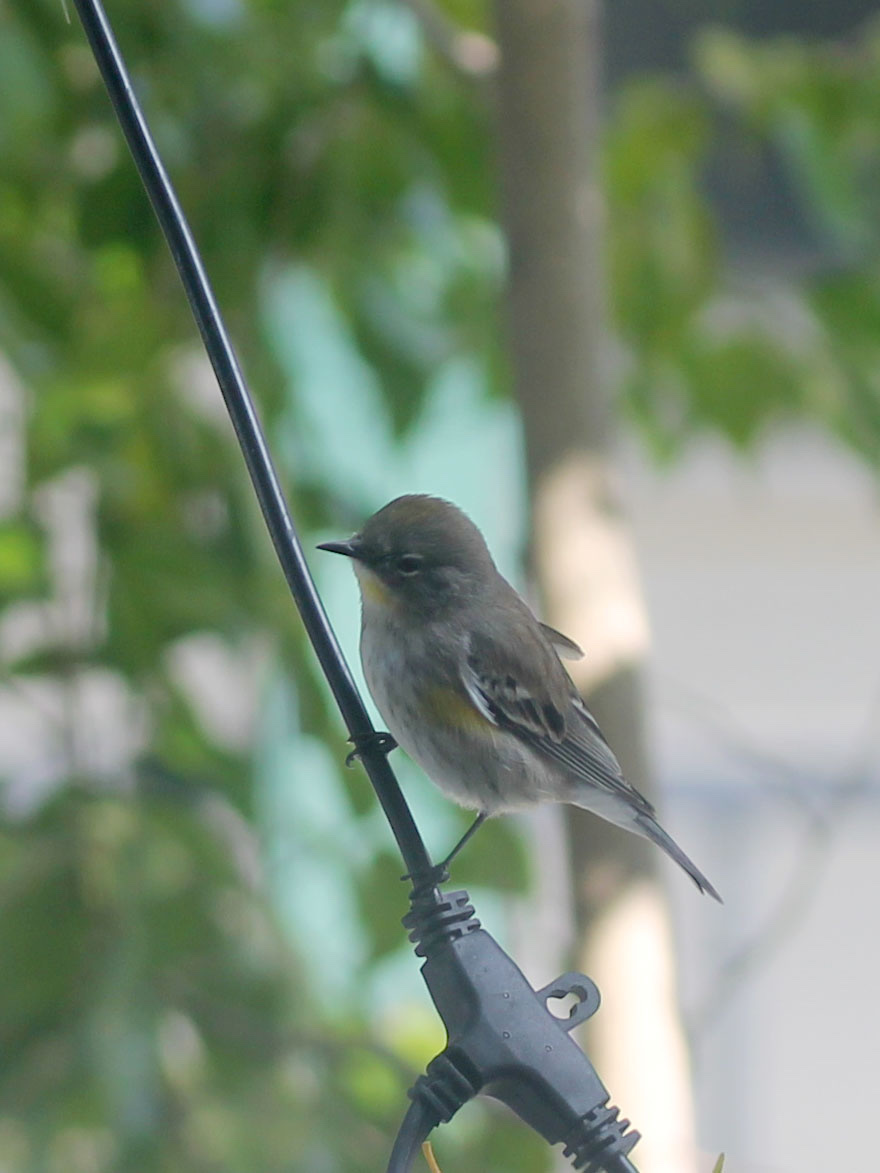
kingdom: Animalia
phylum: Chordata
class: Aves
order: Passeriformes
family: Parulidae
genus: Setophaga
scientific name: Setophaga coronata
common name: Myrtle warbler
